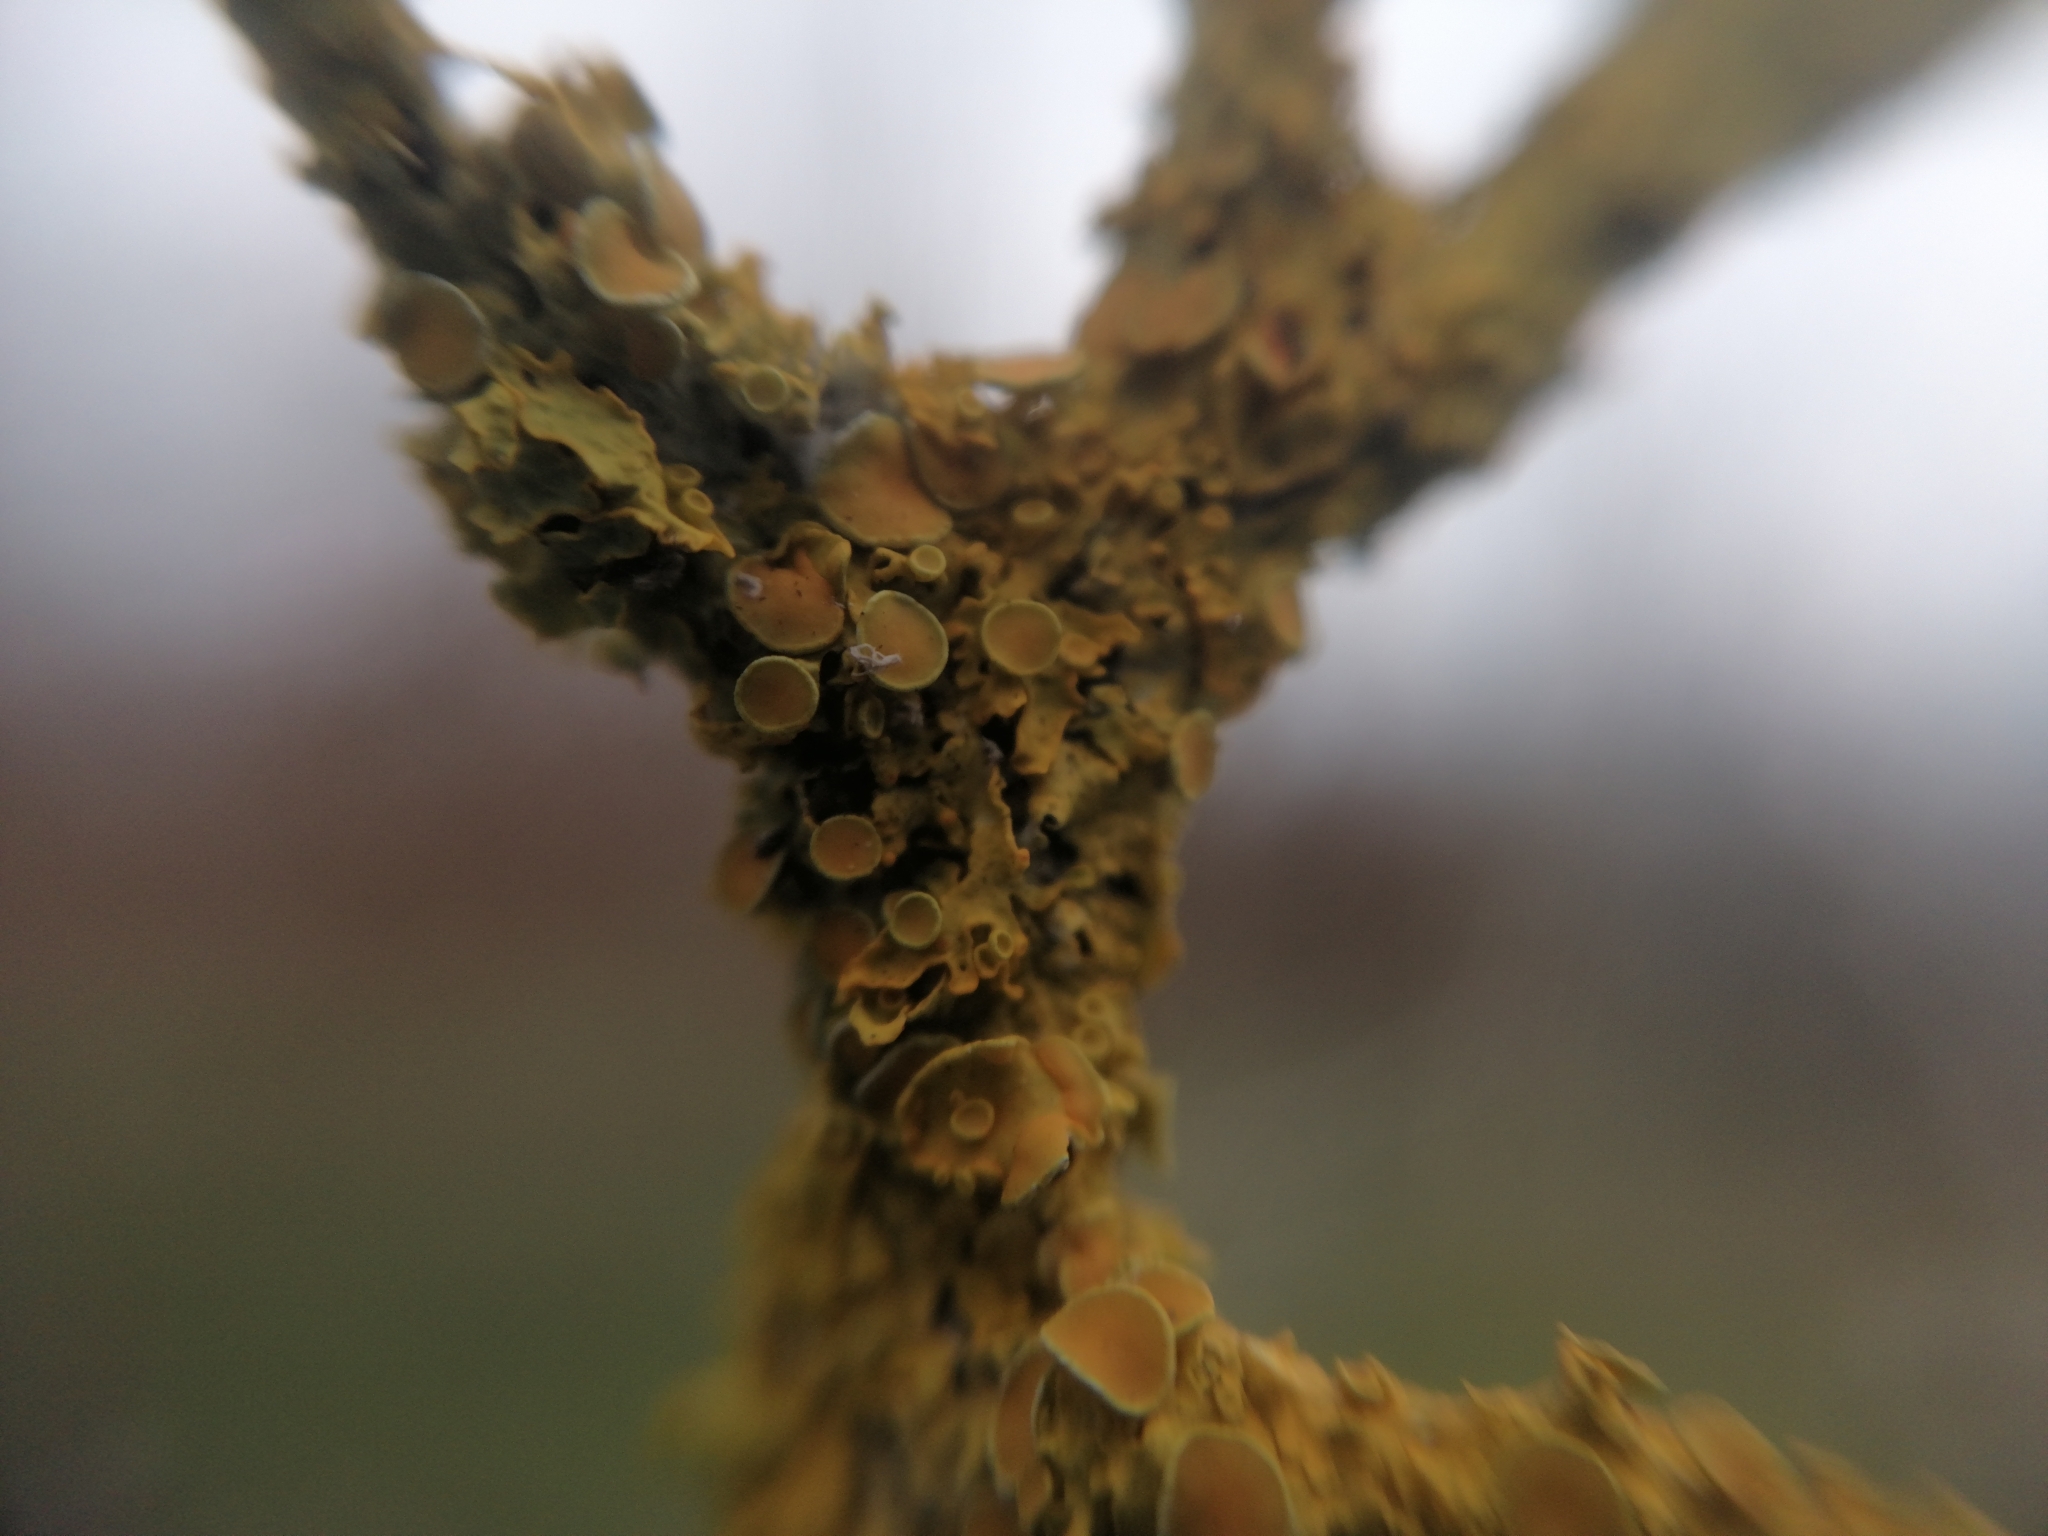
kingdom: Fungi
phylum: Ascomycota
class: Lecanoromycetes
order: Teloschistales
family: Teloschistaceae
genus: Xanthoria
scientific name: Xanthoria parietina
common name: Common orange lichen
